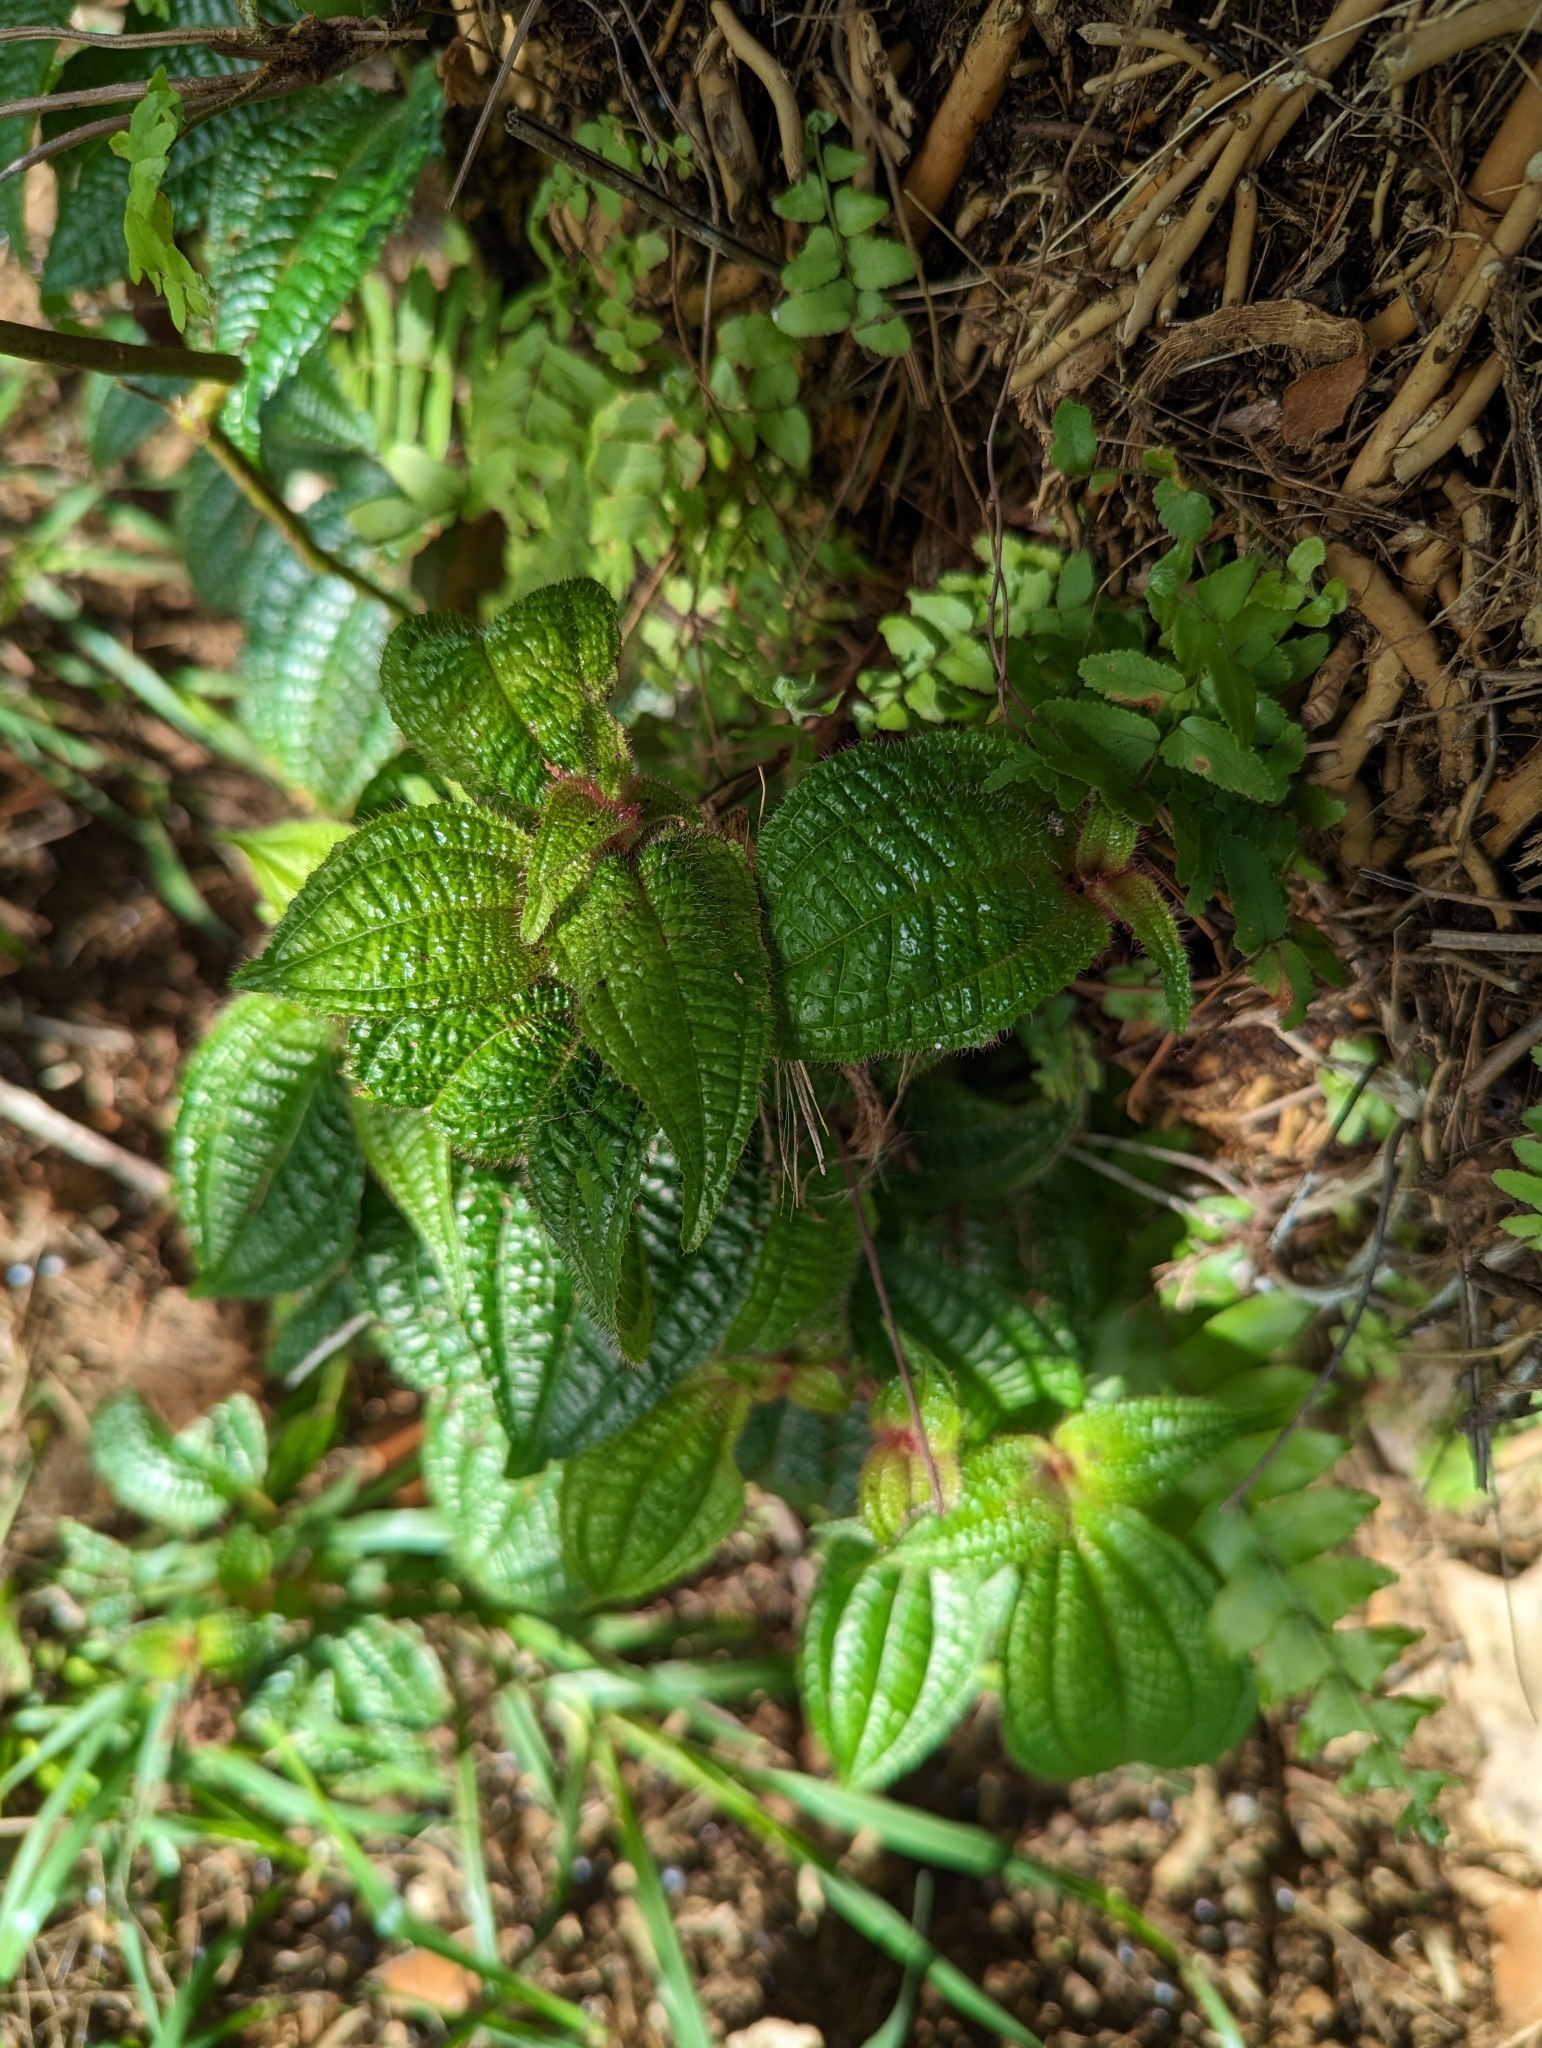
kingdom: Plantae
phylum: Tracheophyta
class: Magnoliopsida
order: Myrtales
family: Melastomataceae
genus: Miconia
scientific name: Miconia crenata
